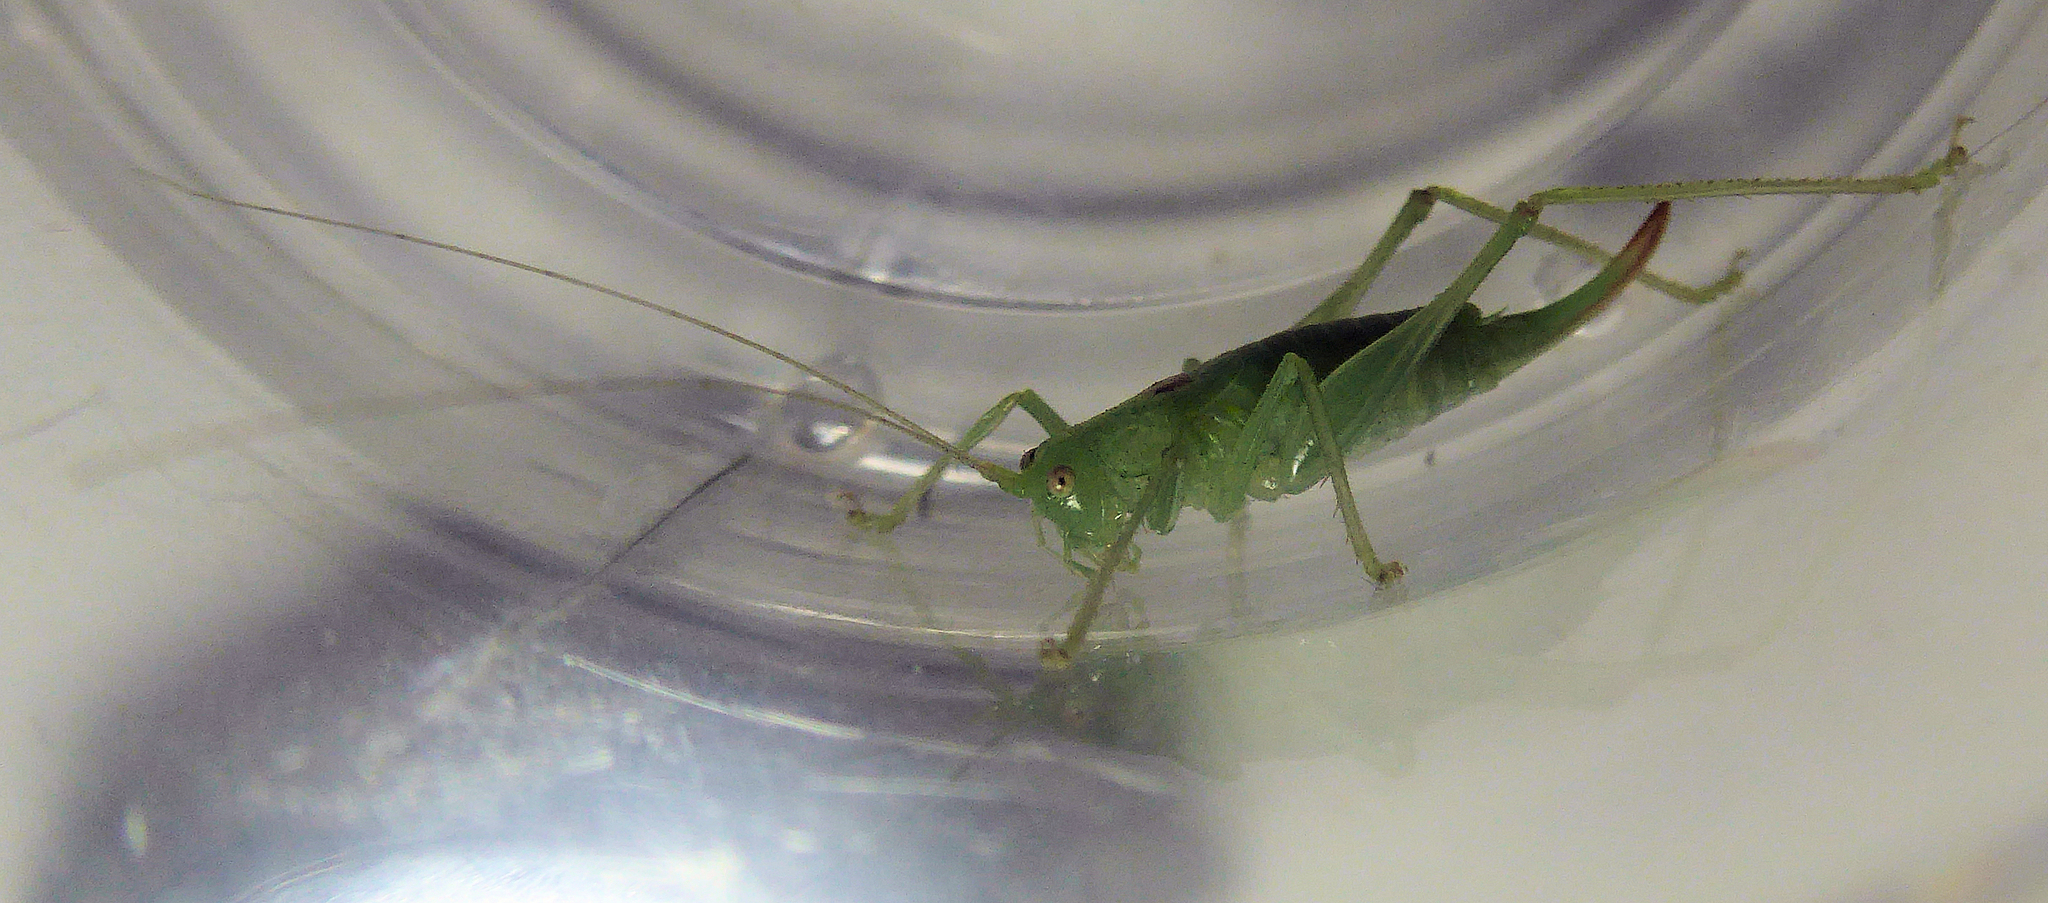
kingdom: Animalia
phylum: Arthropoda
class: Insecta
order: Orthoptera
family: Tettigoniidae
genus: Meconema
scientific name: Meconema meridionale
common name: Southern oak bush-cricket
